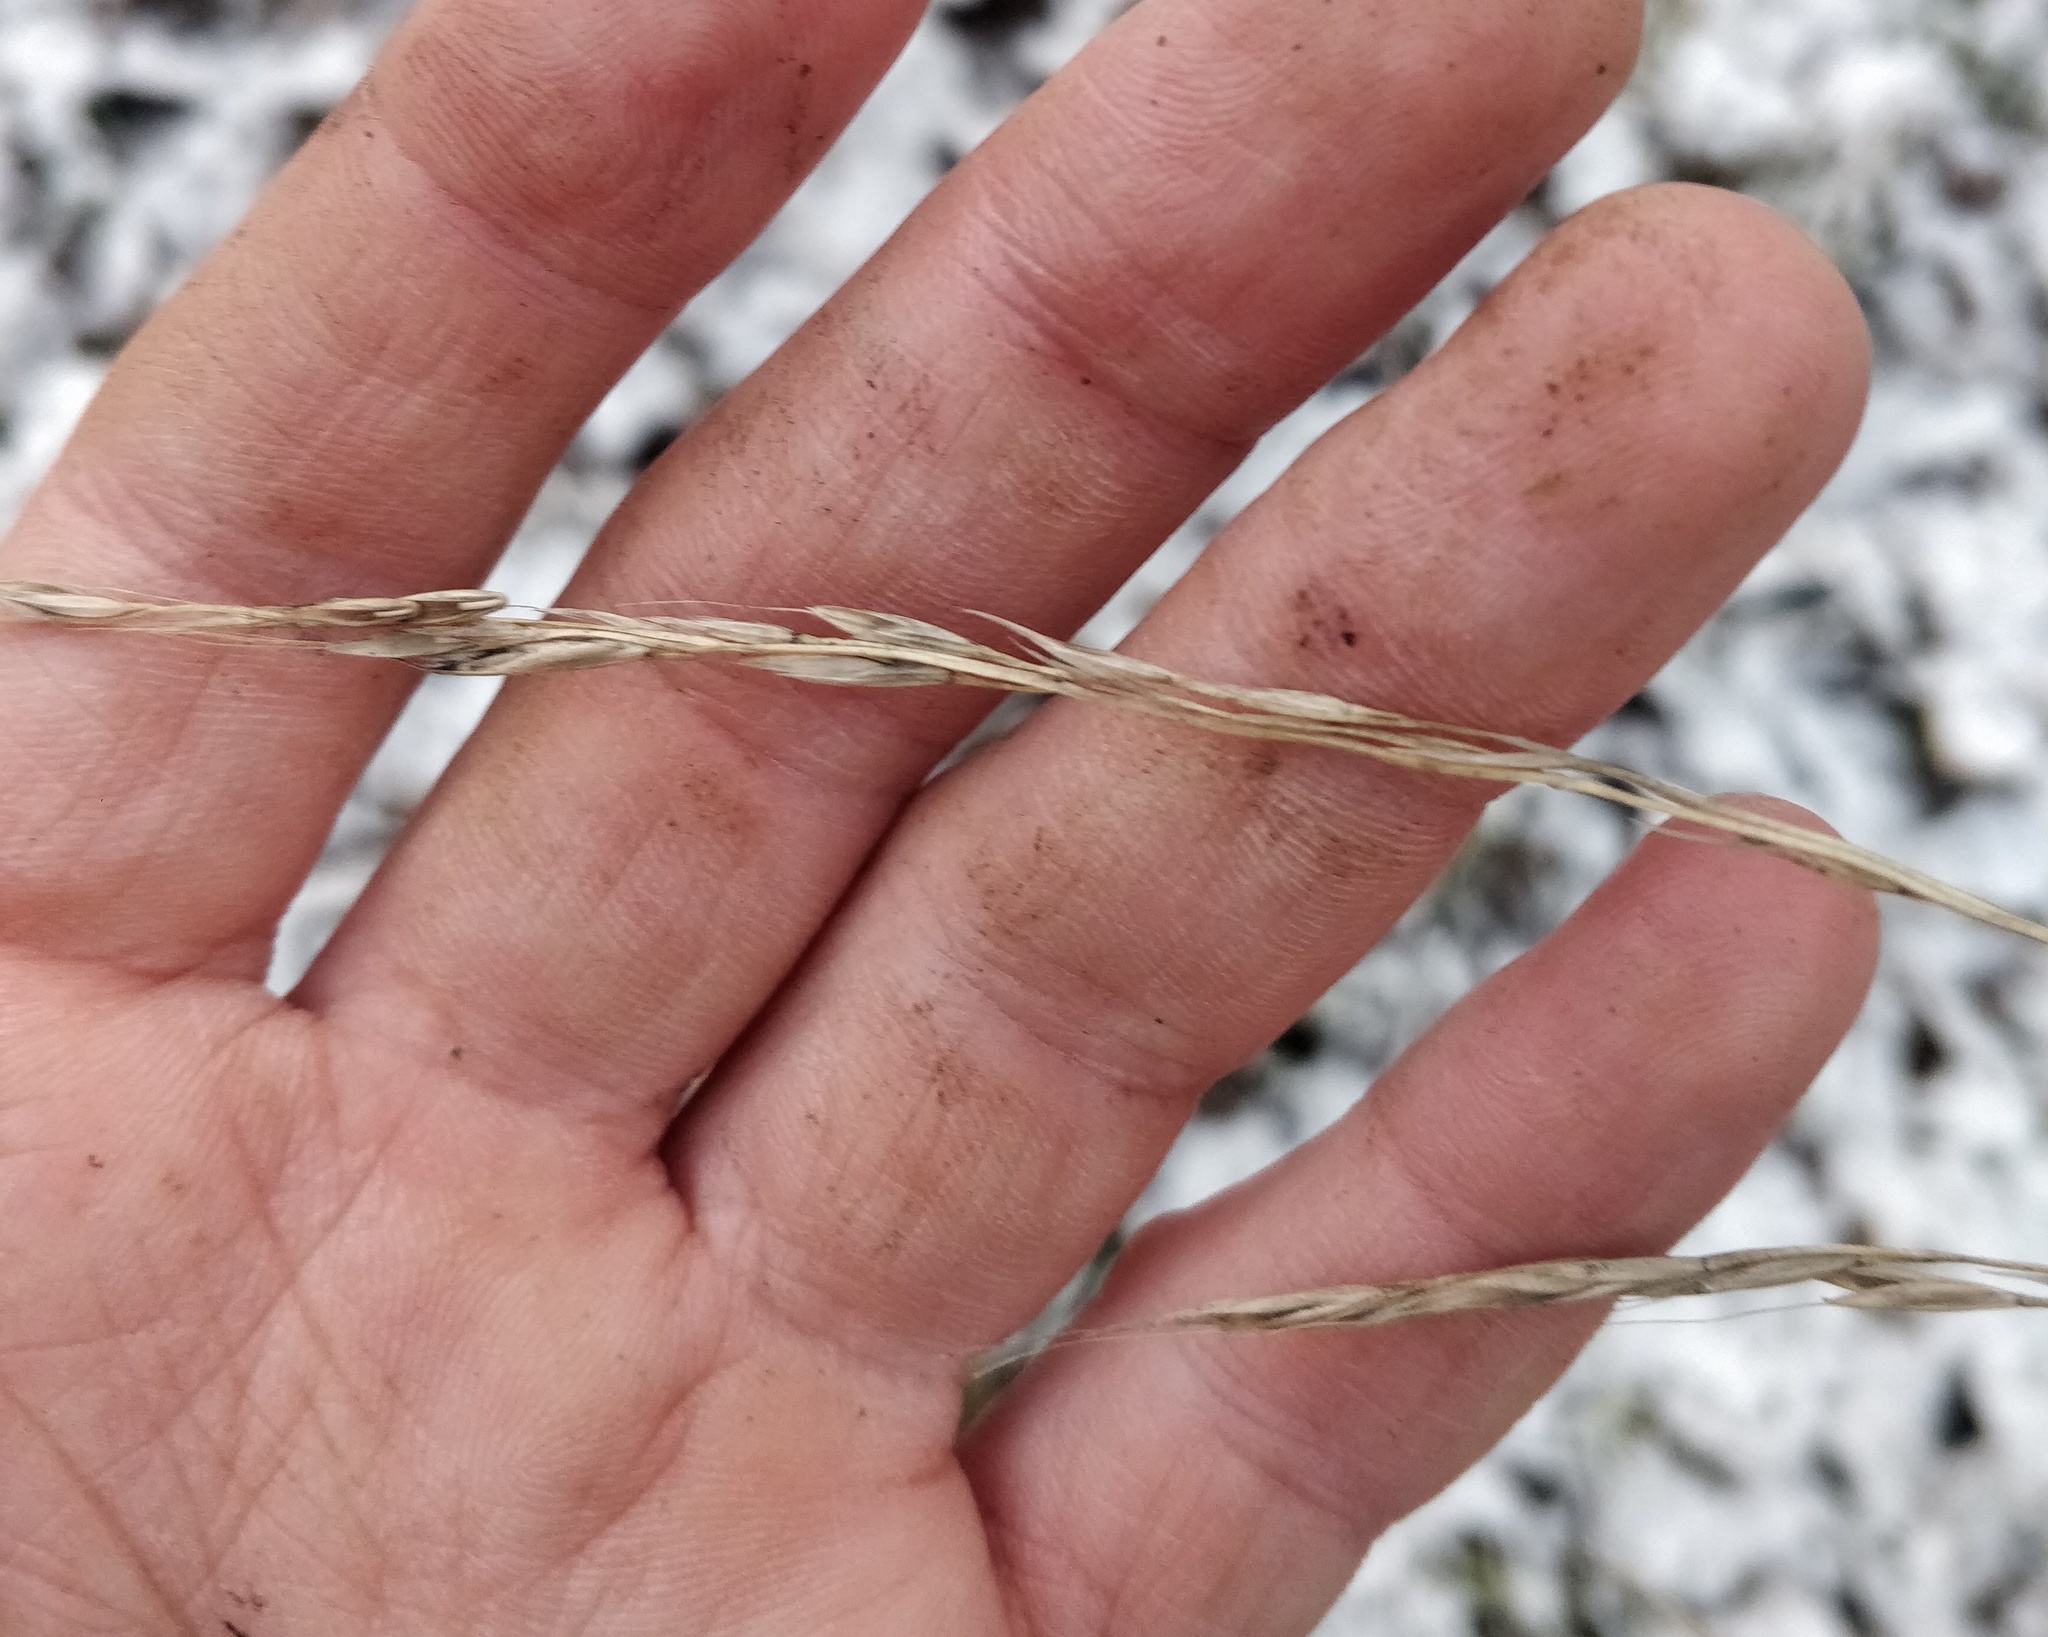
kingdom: Plantae
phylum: Tracheophyta
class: Liliopsida
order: Poales
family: Poaceae
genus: Lolium
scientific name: Lolium giganteum
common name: Giant fescue
